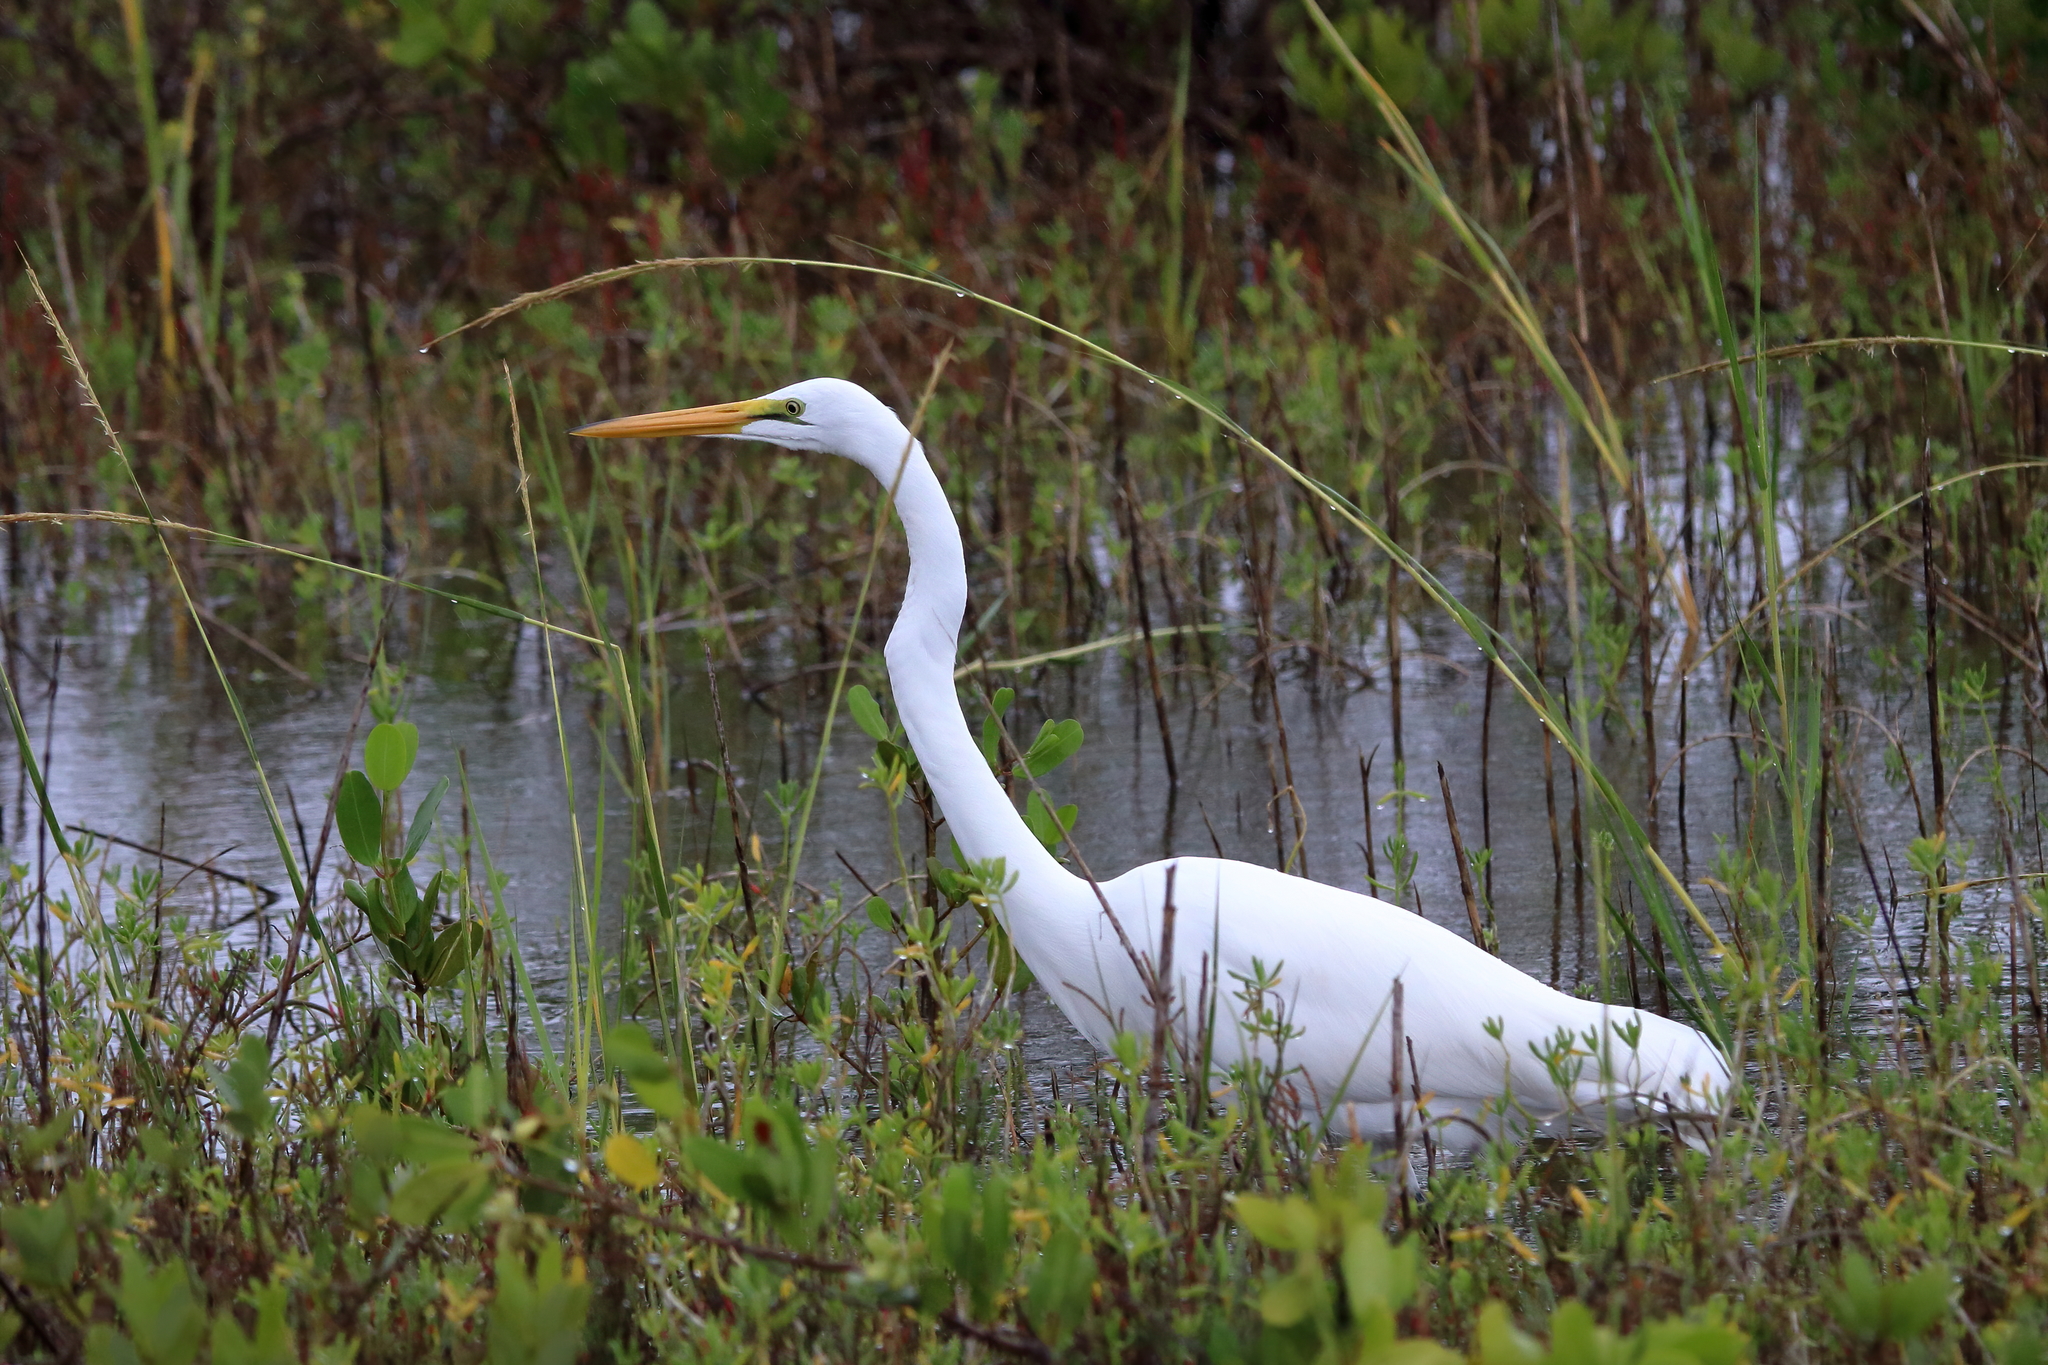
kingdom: Animalia
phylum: Chordata
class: Aves
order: Pelecaniformes
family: Ardeidae
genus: Ardea
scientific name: Ardea alba
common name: Great egret
